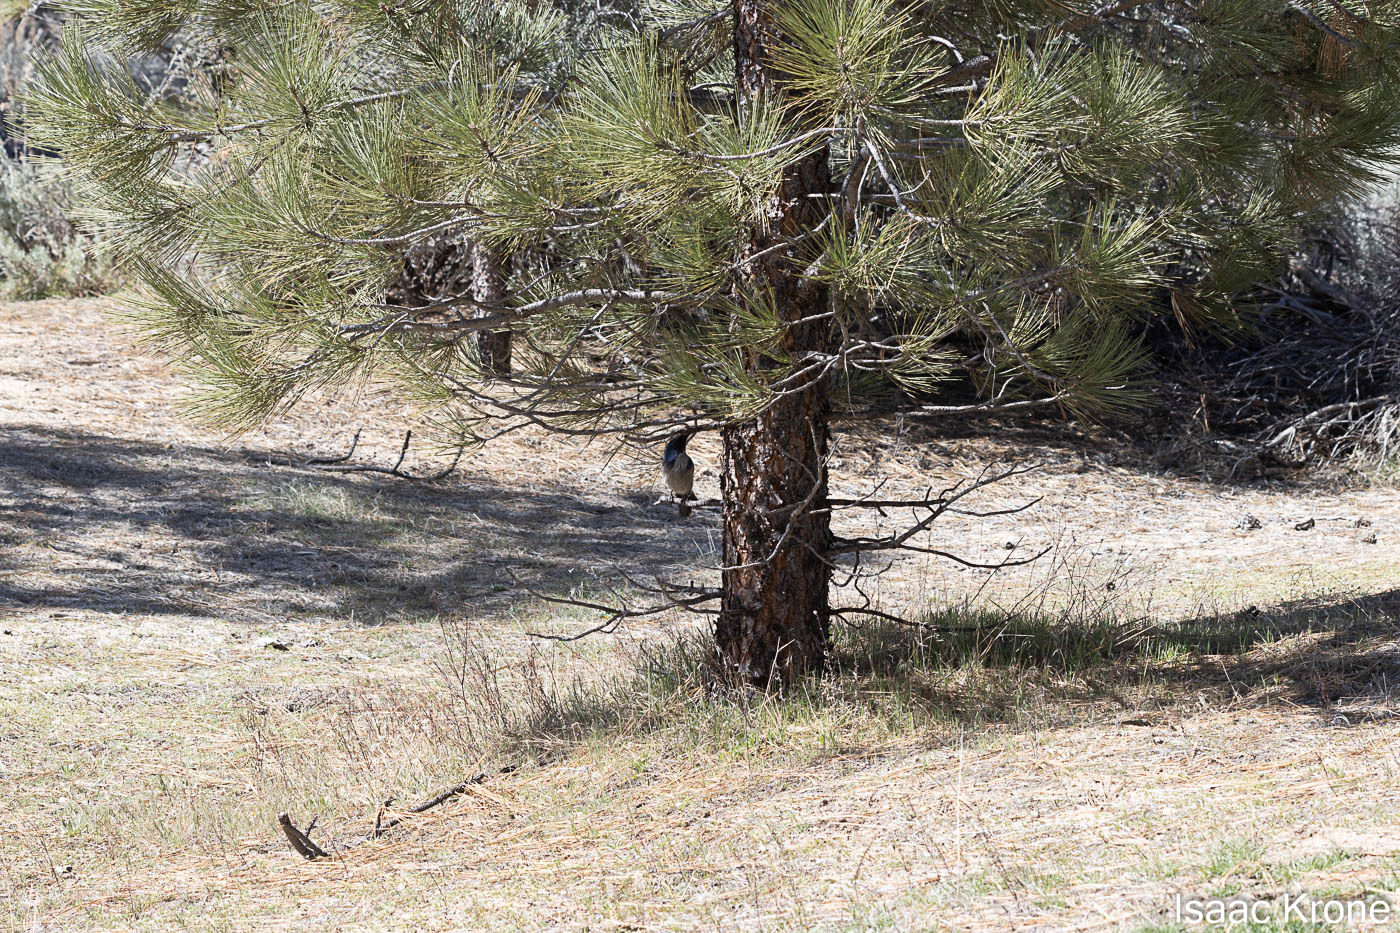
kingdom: Animalia
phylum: Chordata
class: Aves
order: Passeriformes
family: Corvidae
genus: Aphelocoma
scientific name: Aphelocoma californica
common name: California scrub-jay
